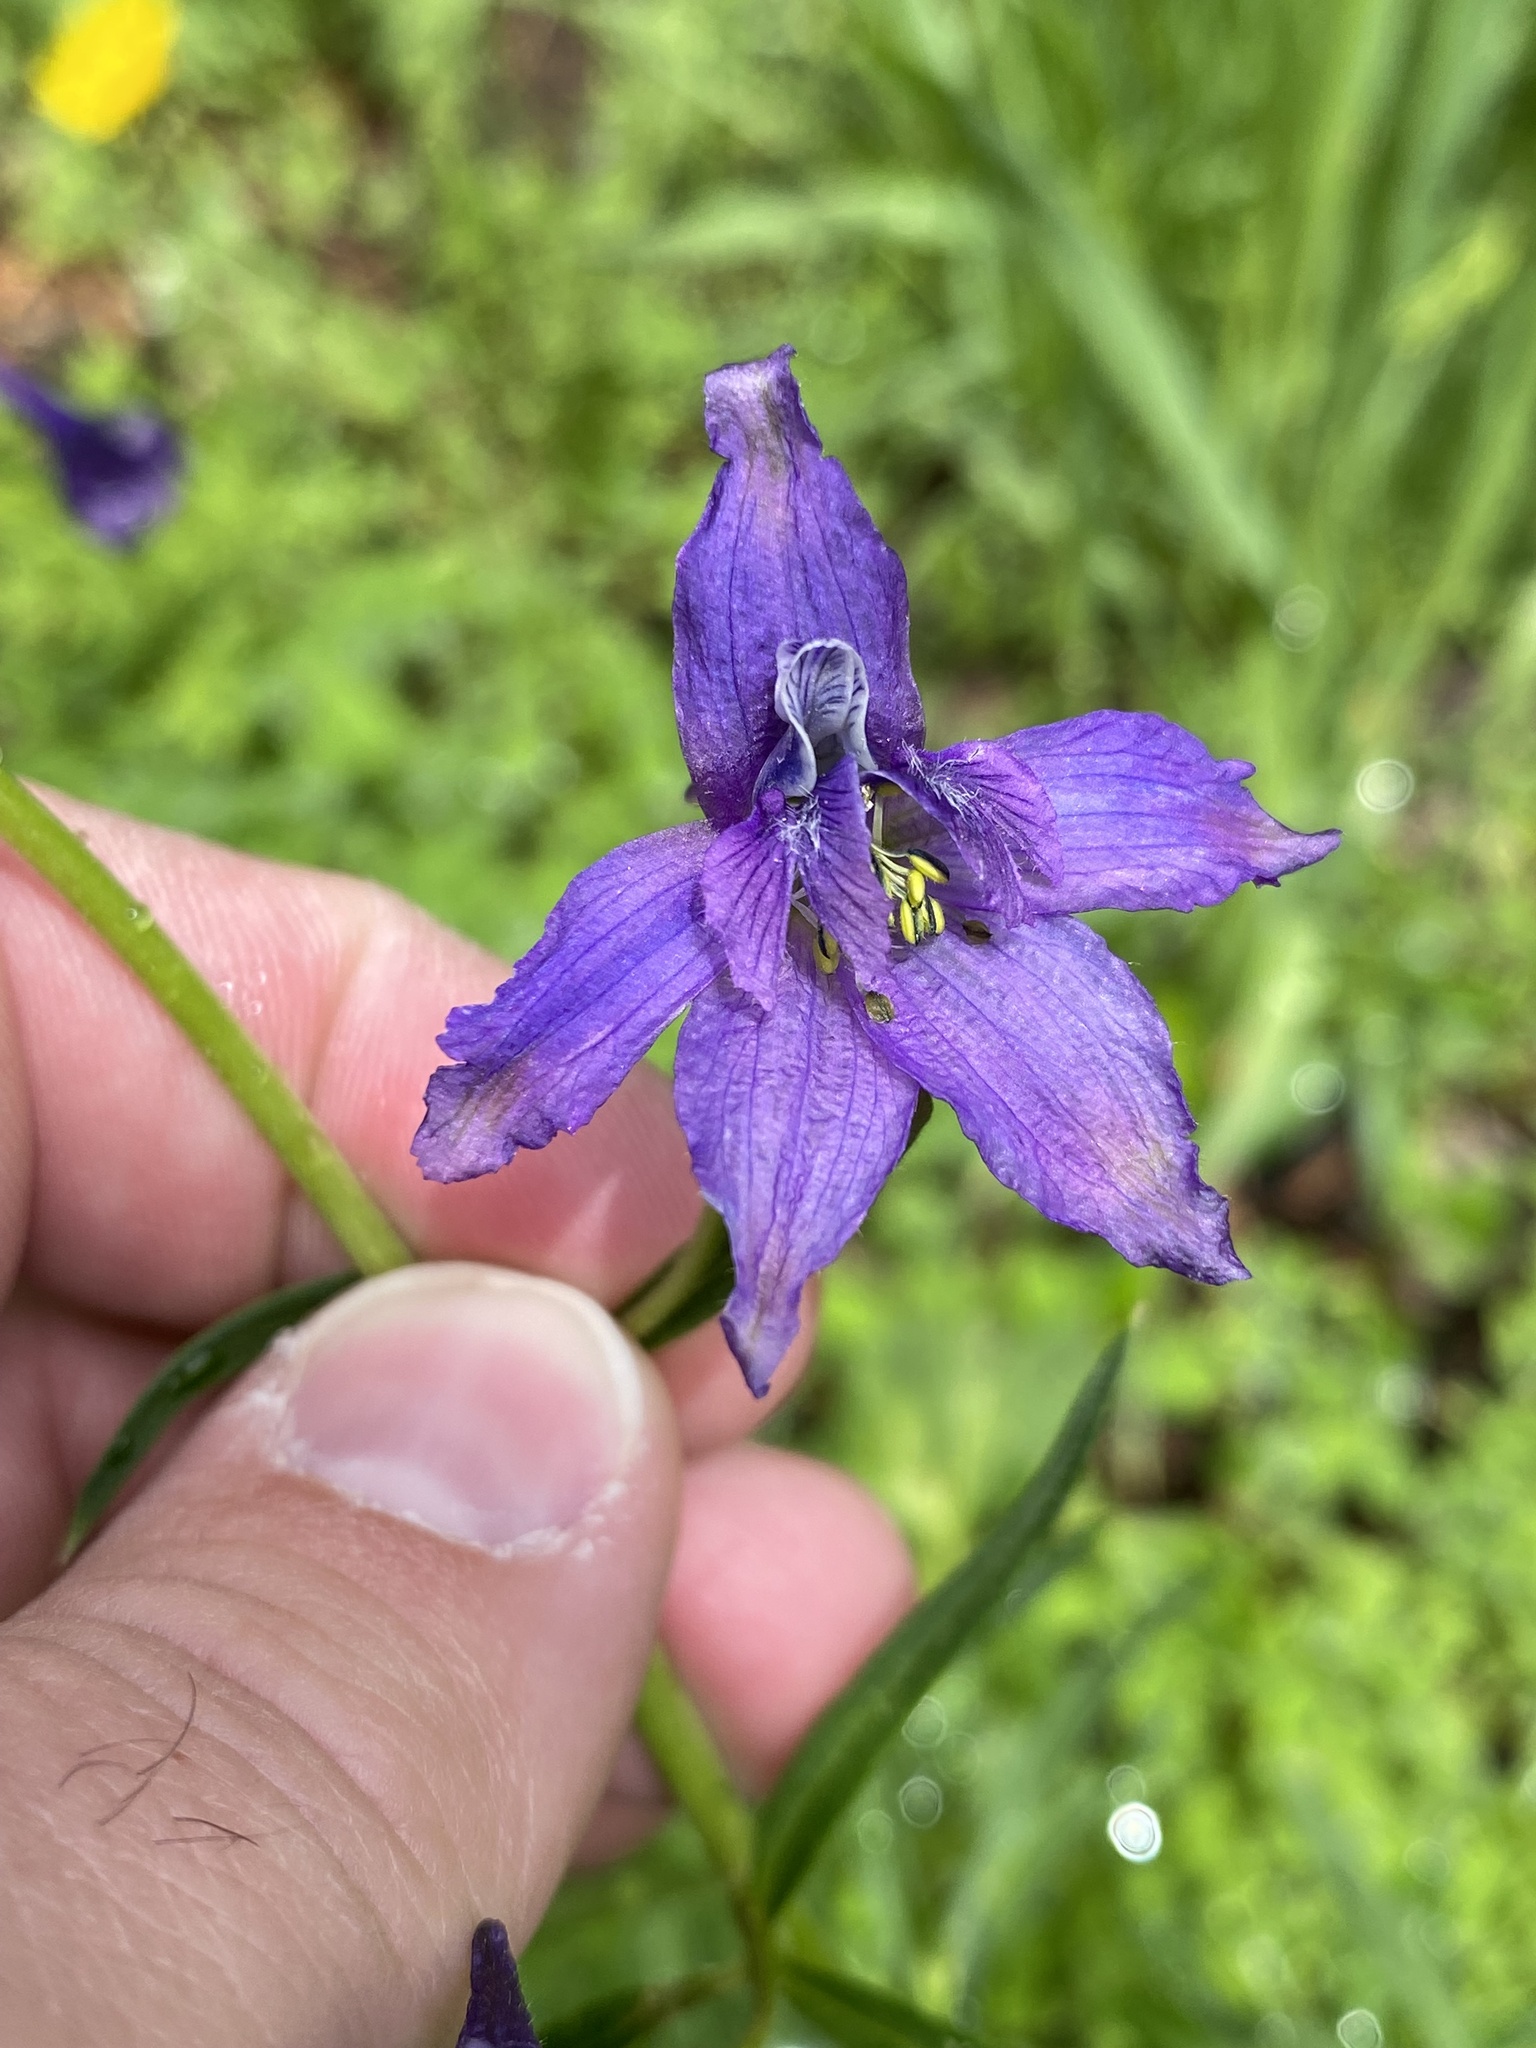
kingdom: Plantae
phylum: Tracheophyta
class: Magnoliopsida
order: Ranunculales
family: Ranunculaceae
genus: Delphinium
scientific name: Delphinium barbeyi
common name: Subalpine larkspur
